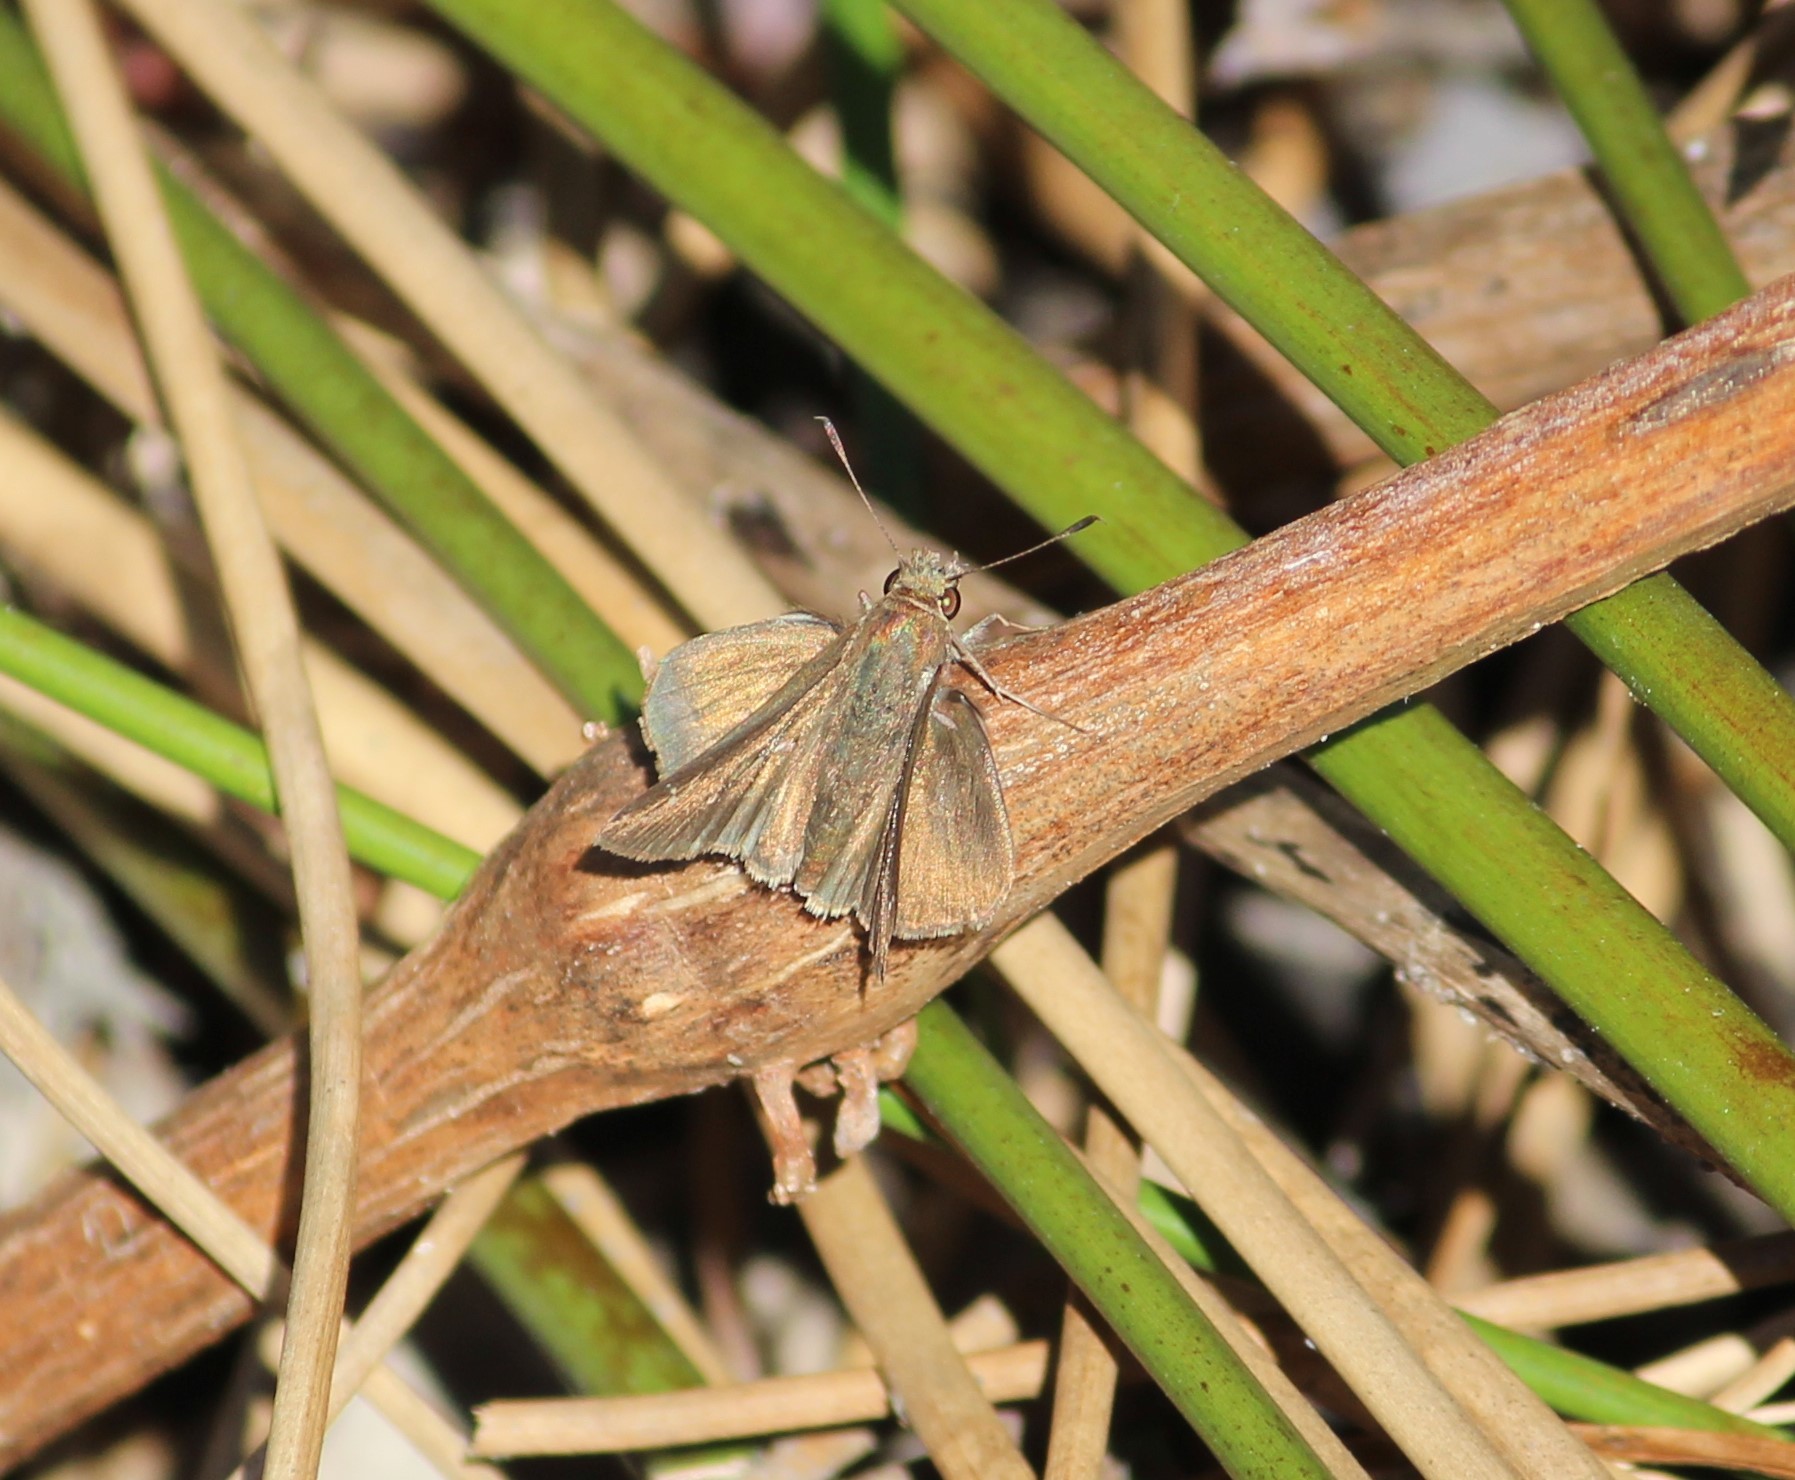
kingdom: Animalia
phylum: Arthropoda
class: Insecta
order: Lepidoptera
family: Hesperiidae
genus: Lerema
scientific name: Lerema accius
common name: Clouded skipper
